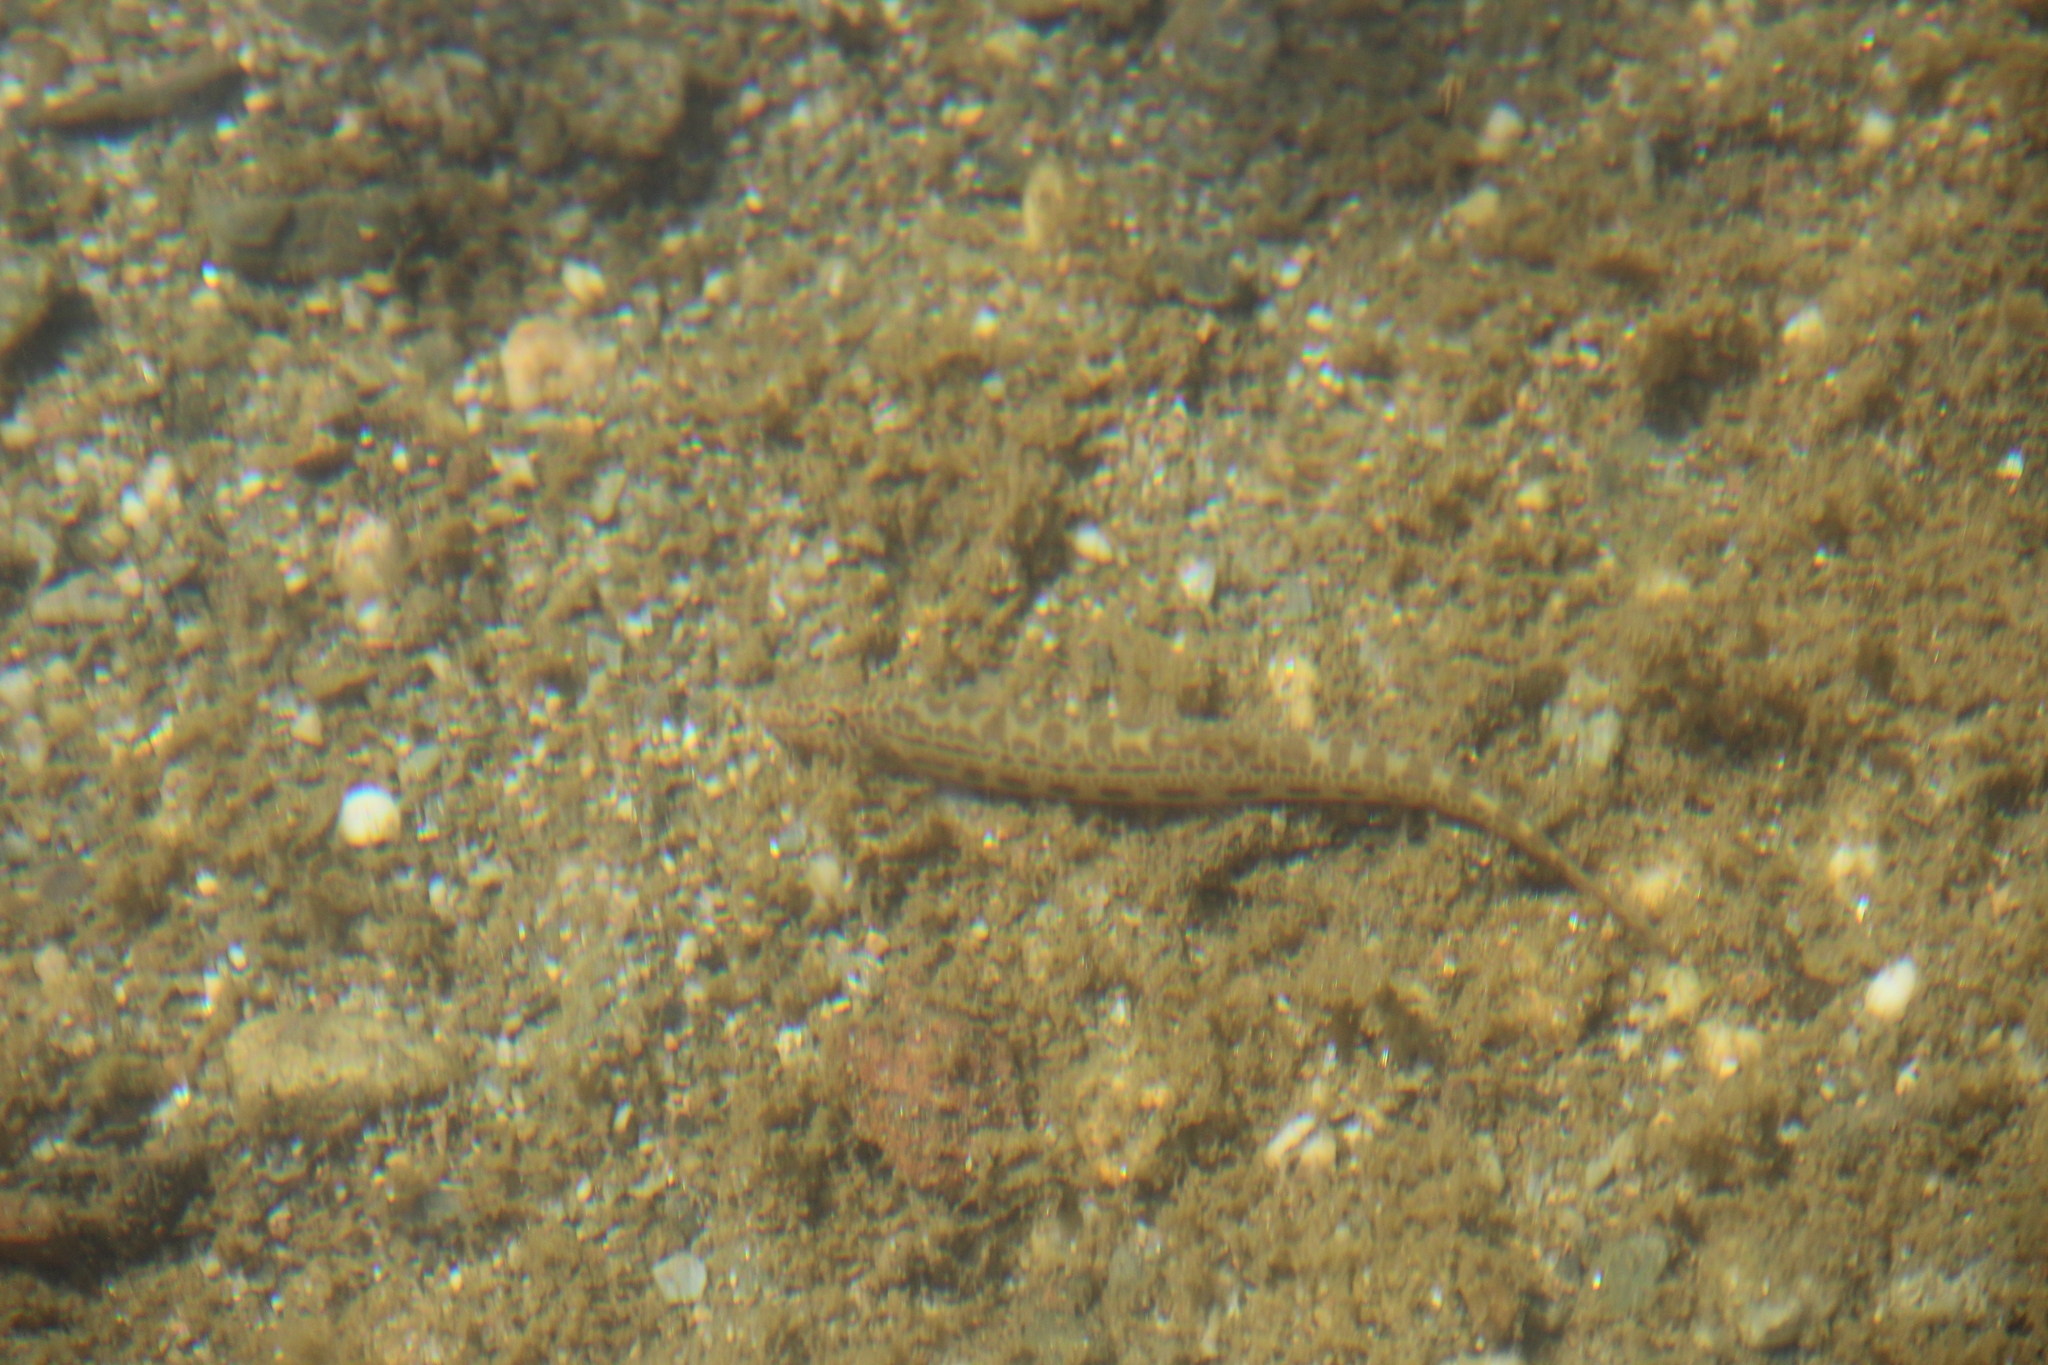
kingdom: Animalia
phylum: Chordata
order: Cypriniformes
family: Cobitidae
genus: Cobitis
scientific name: Cobitis bilineata
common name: Italian spined loach
